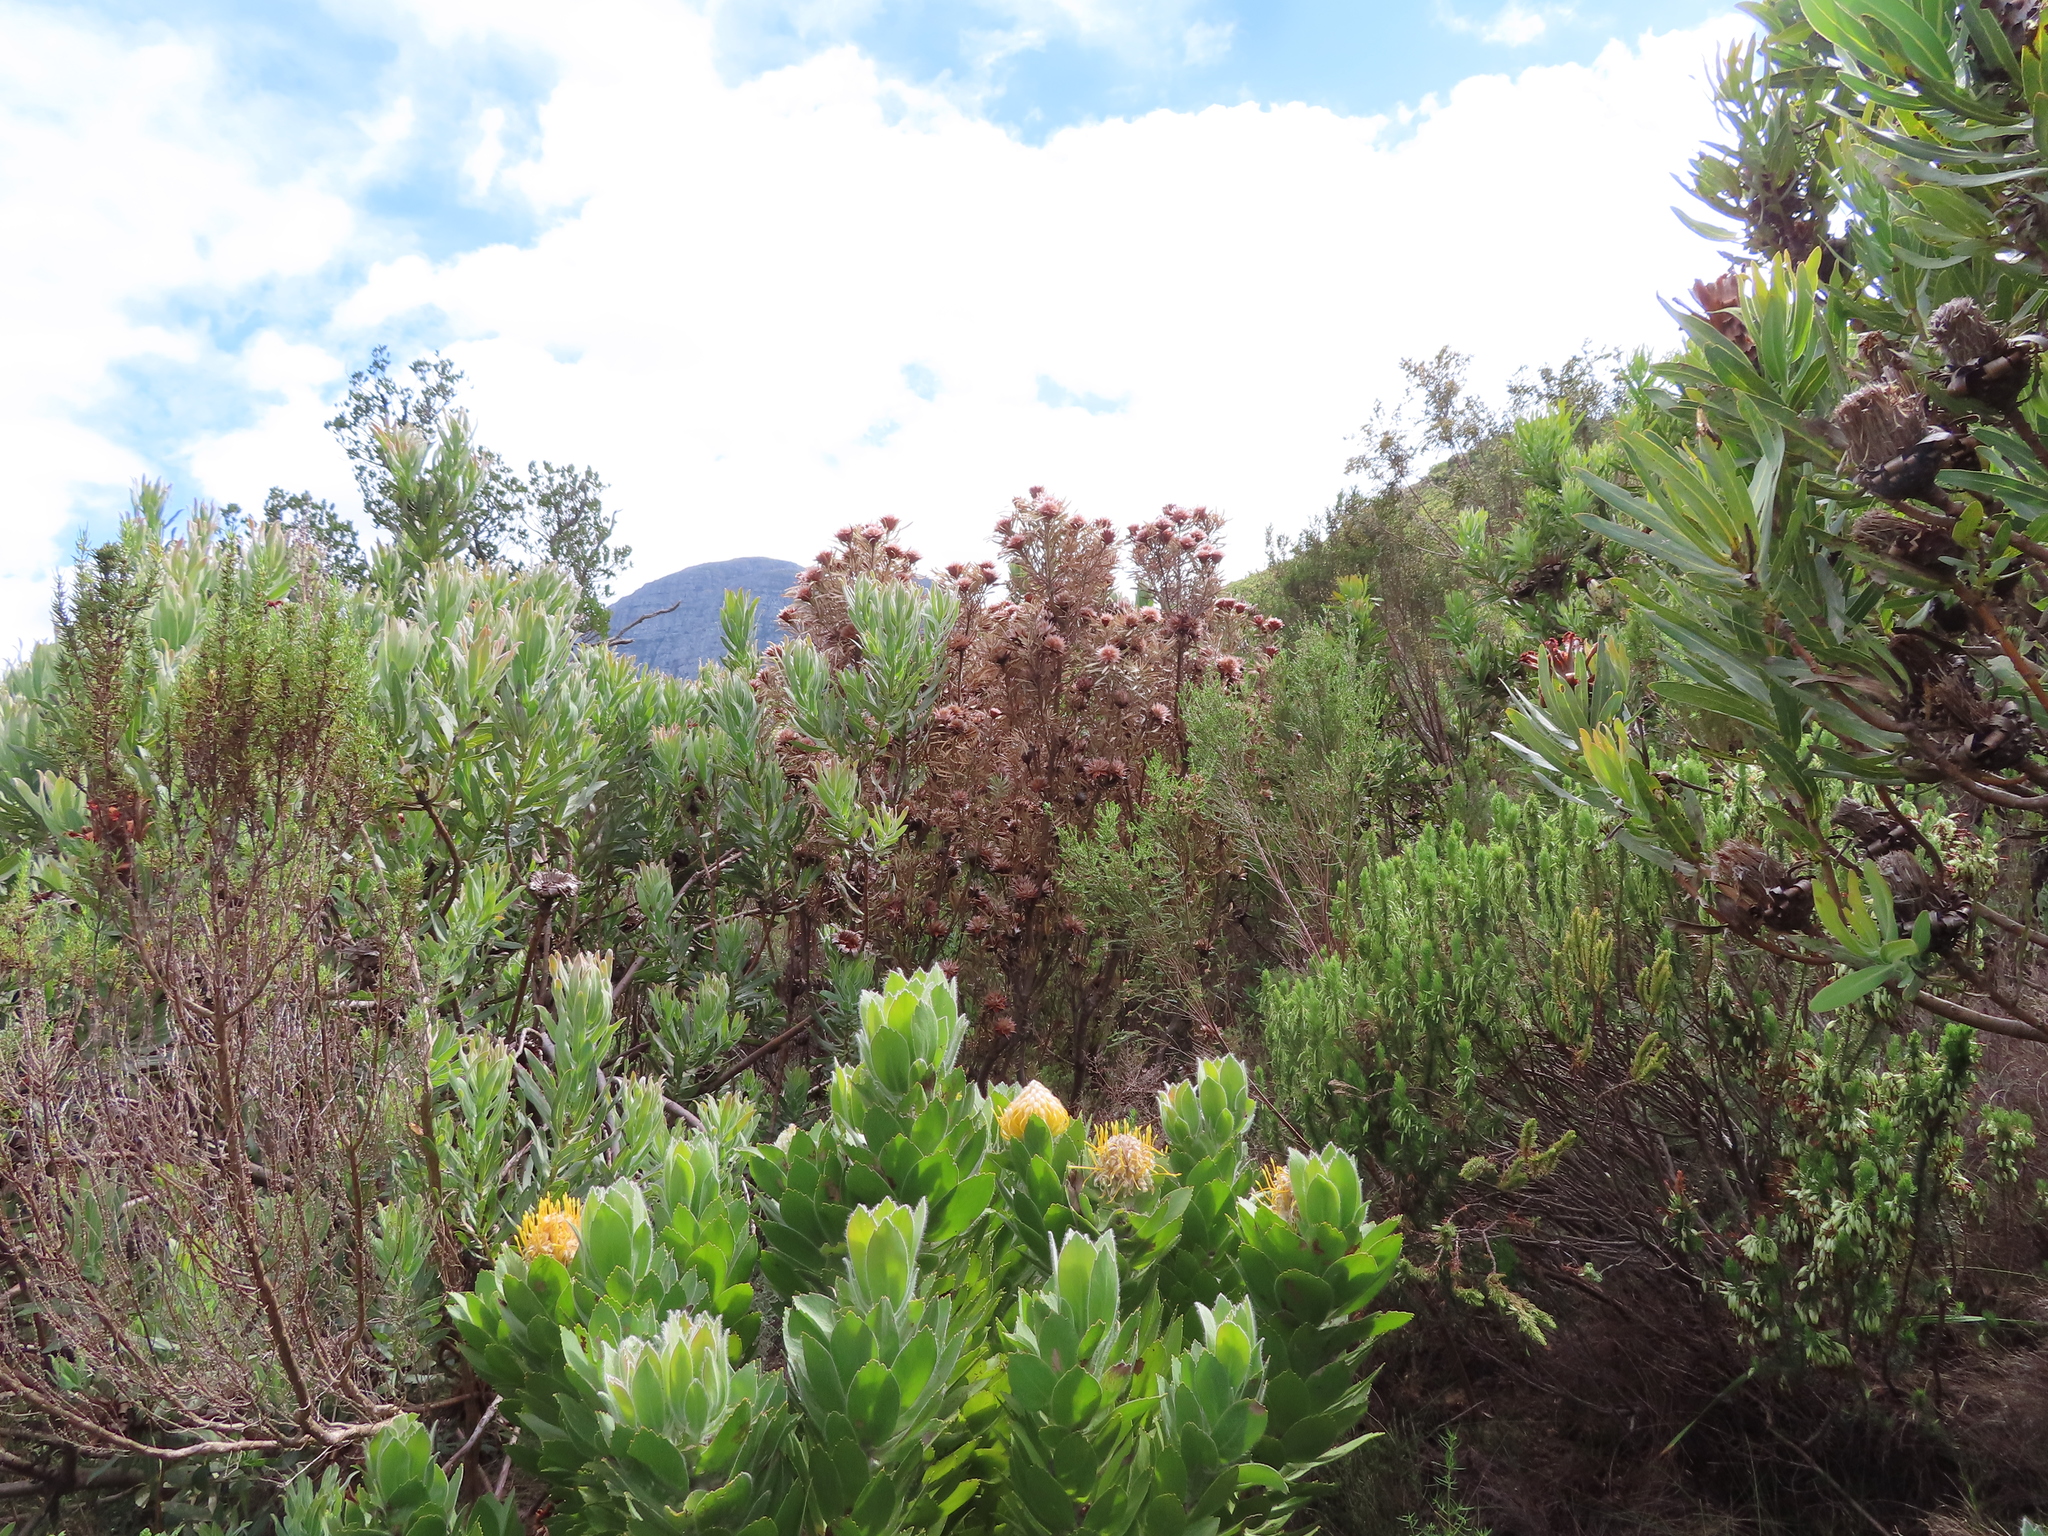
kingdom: Plantae
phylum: Tracheophyta
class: Magnoliopsida
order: Proteales
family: Proteaceae
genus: Leucadendron
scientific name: Leucadendron rubrum
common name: Spinning top
